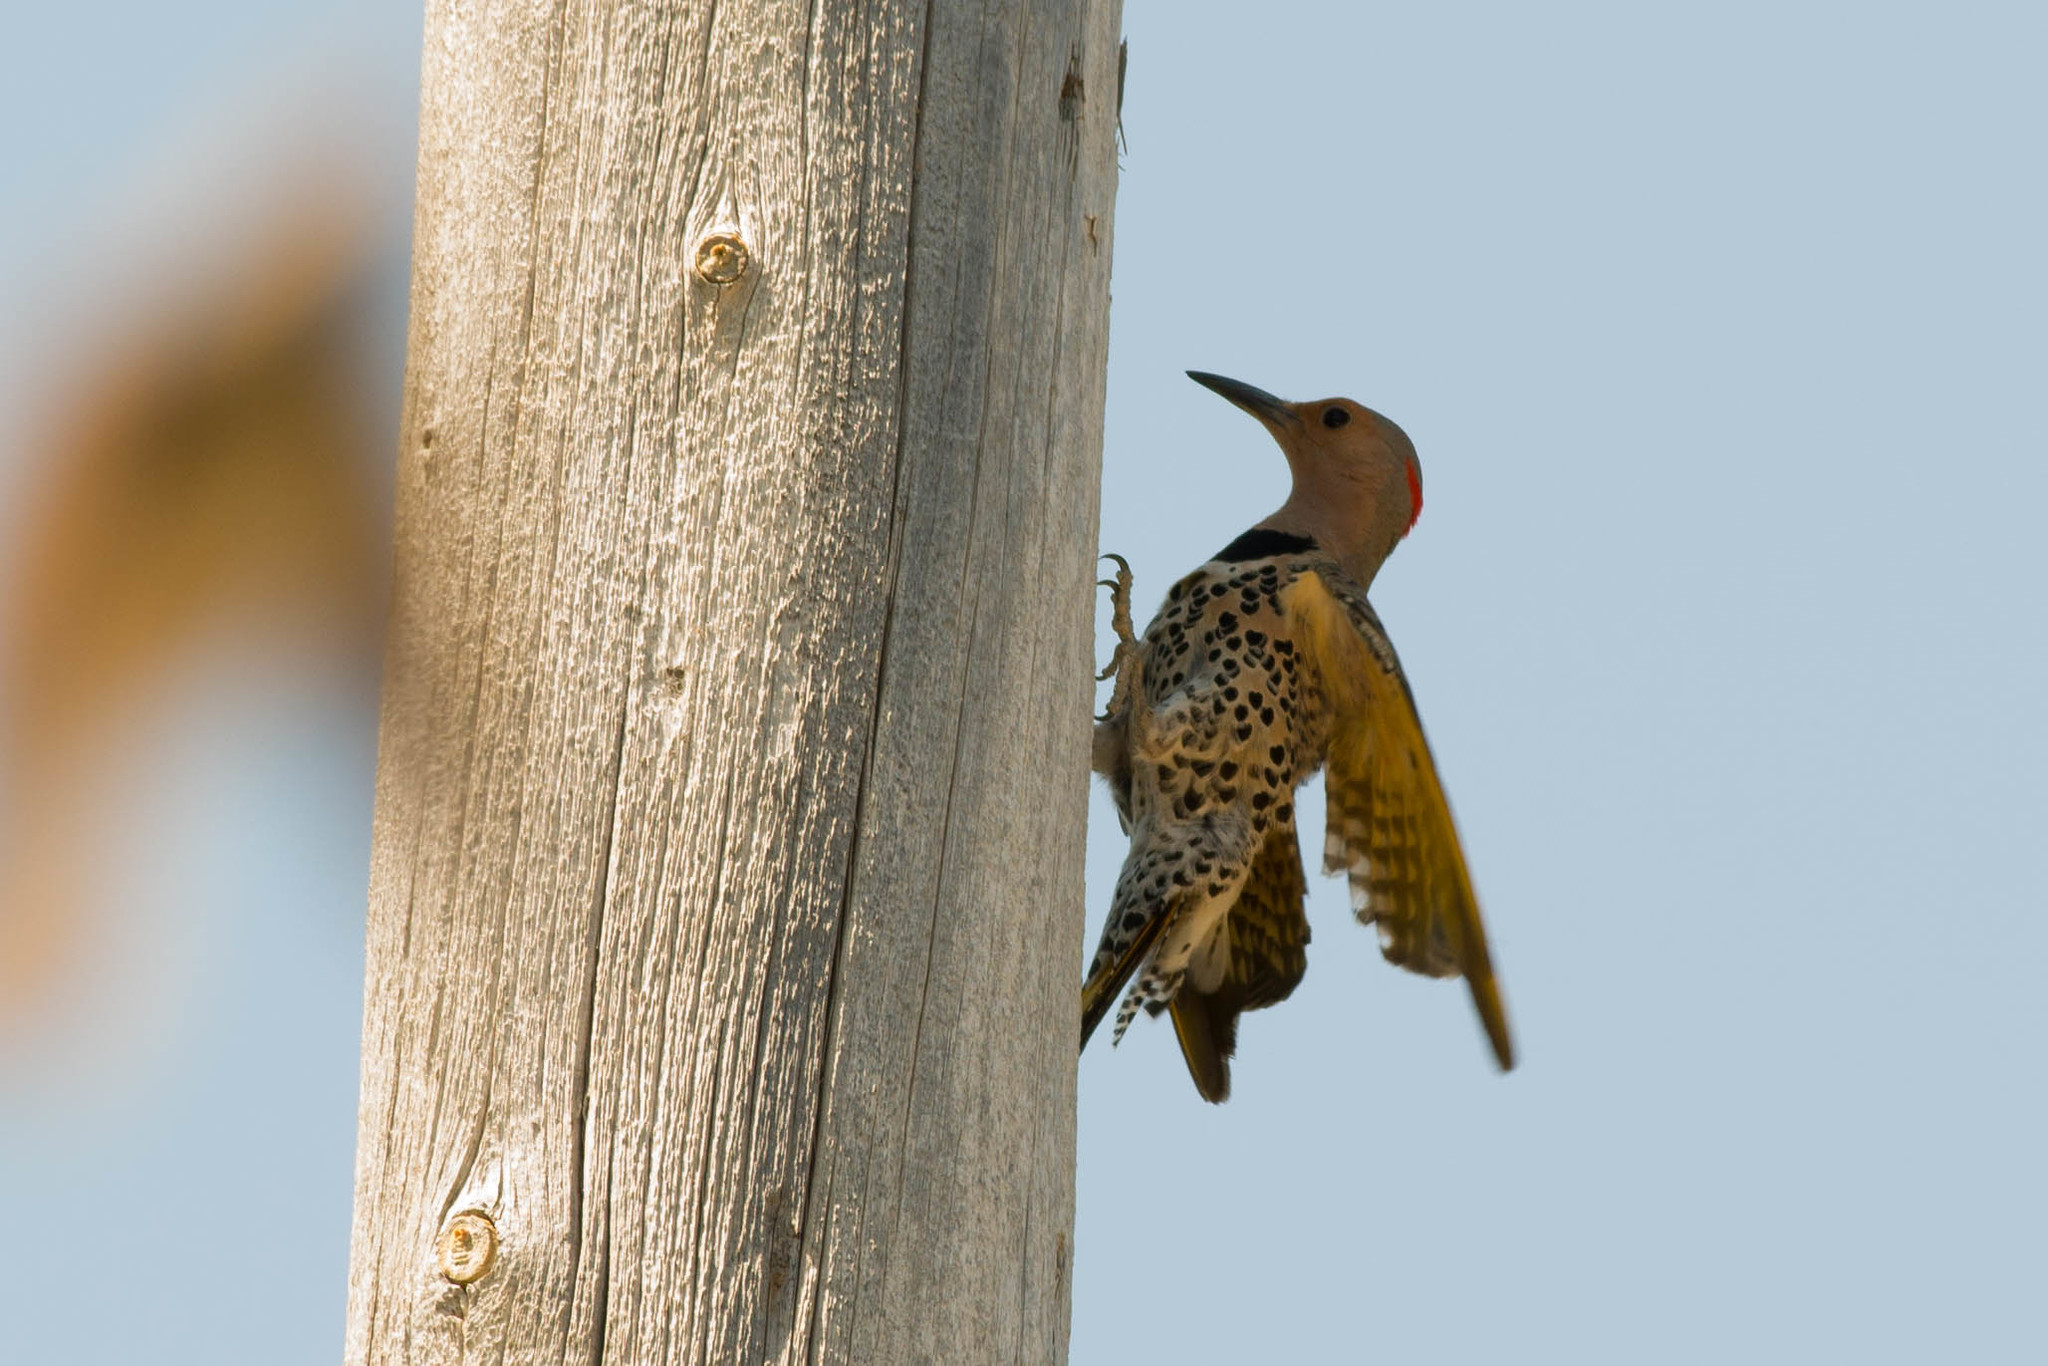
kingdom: Animalia
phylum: Chordata
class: Aves
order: Piciformes
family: Picidae
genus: Colaptes
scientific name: Colaptes auratus
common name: Northern flicker
